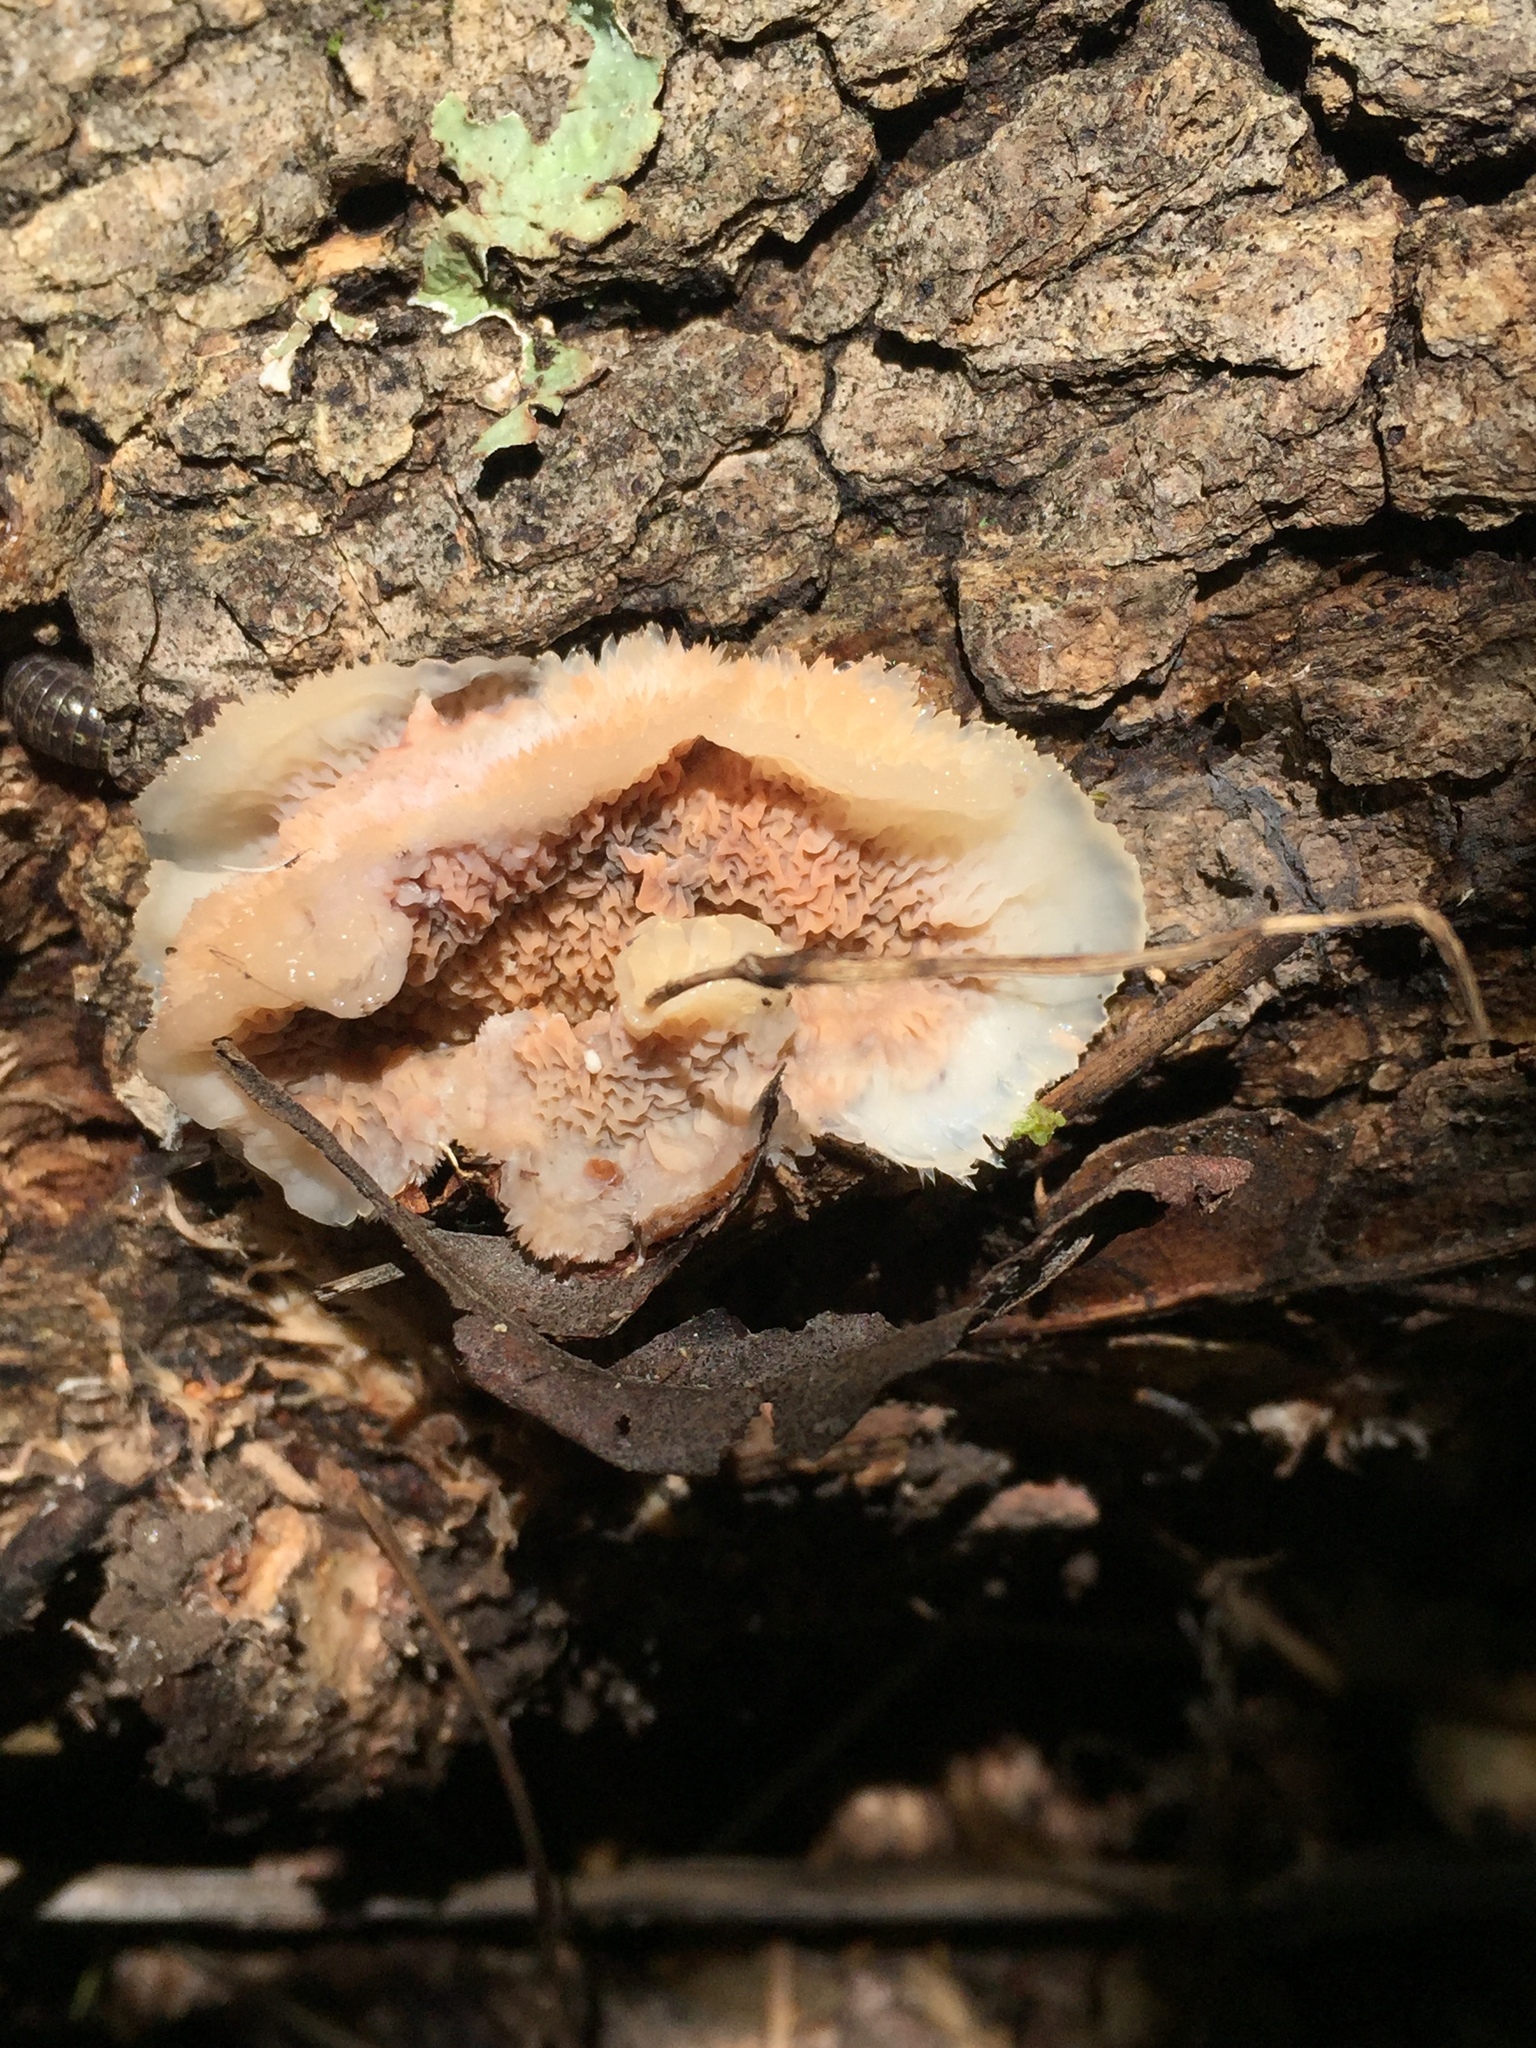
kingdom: Fungi
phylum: Basidiomycota
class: Agaricomycetes
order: Polyporales
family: Meruliaceae
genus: Phlebia
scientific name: Phlebia tremellosa
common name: Jelly rot
